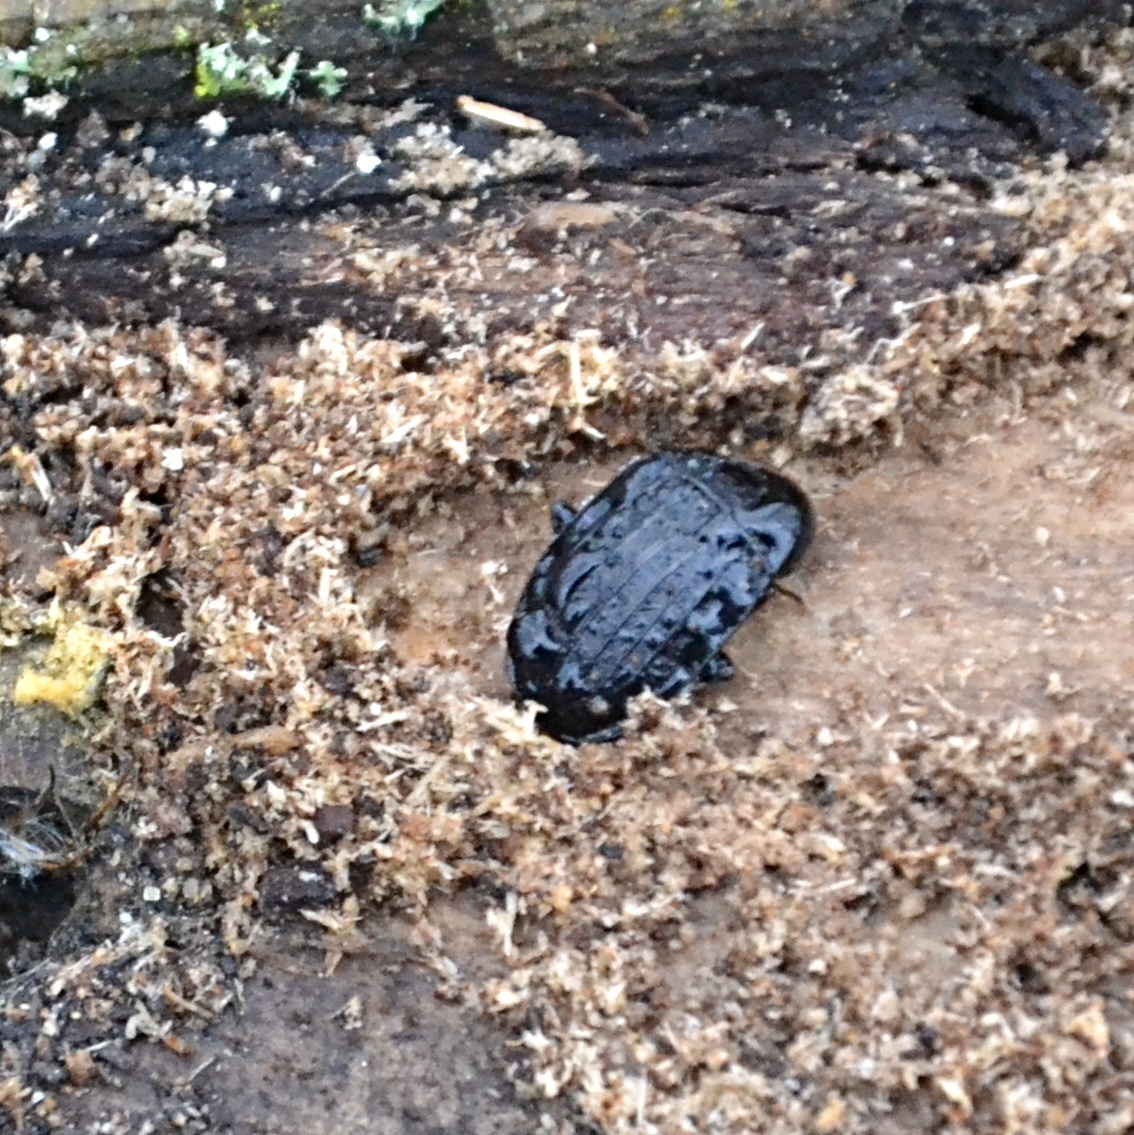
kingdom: Animalia
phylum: Arthropoda
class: Insecta
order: Coleoptera
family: Staphylinidae
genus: Silpha
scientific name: Silpha atrata
